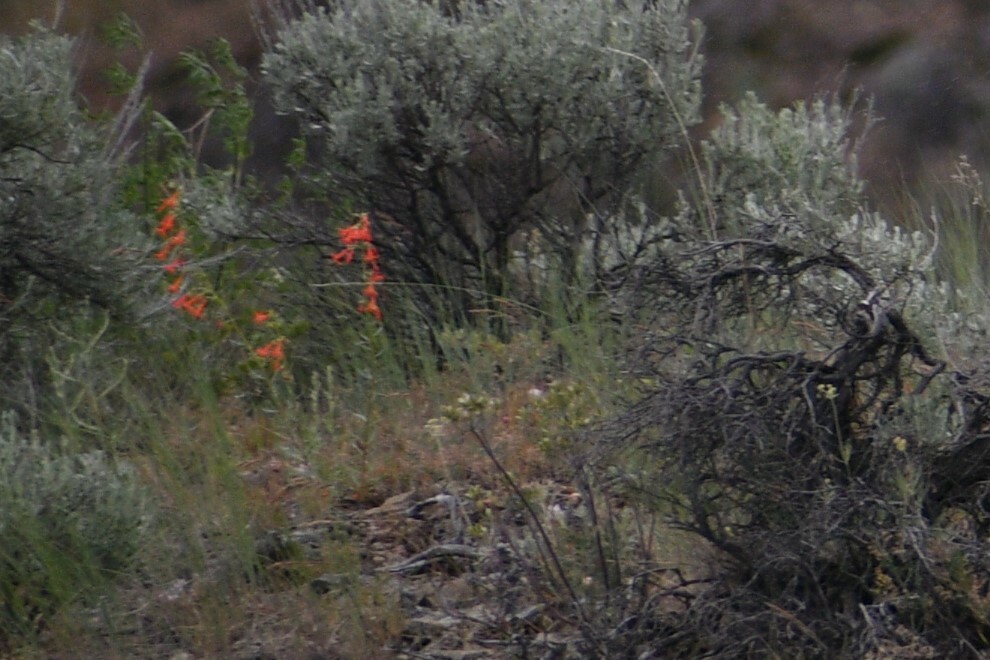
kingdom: Plantae
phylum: Tracheophyta
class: Magnoliopsida
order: Ericales
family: Polemoniaceae
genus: Ipomopsis
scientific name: Ipomopsis aggregata
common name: Scarlet gilia
